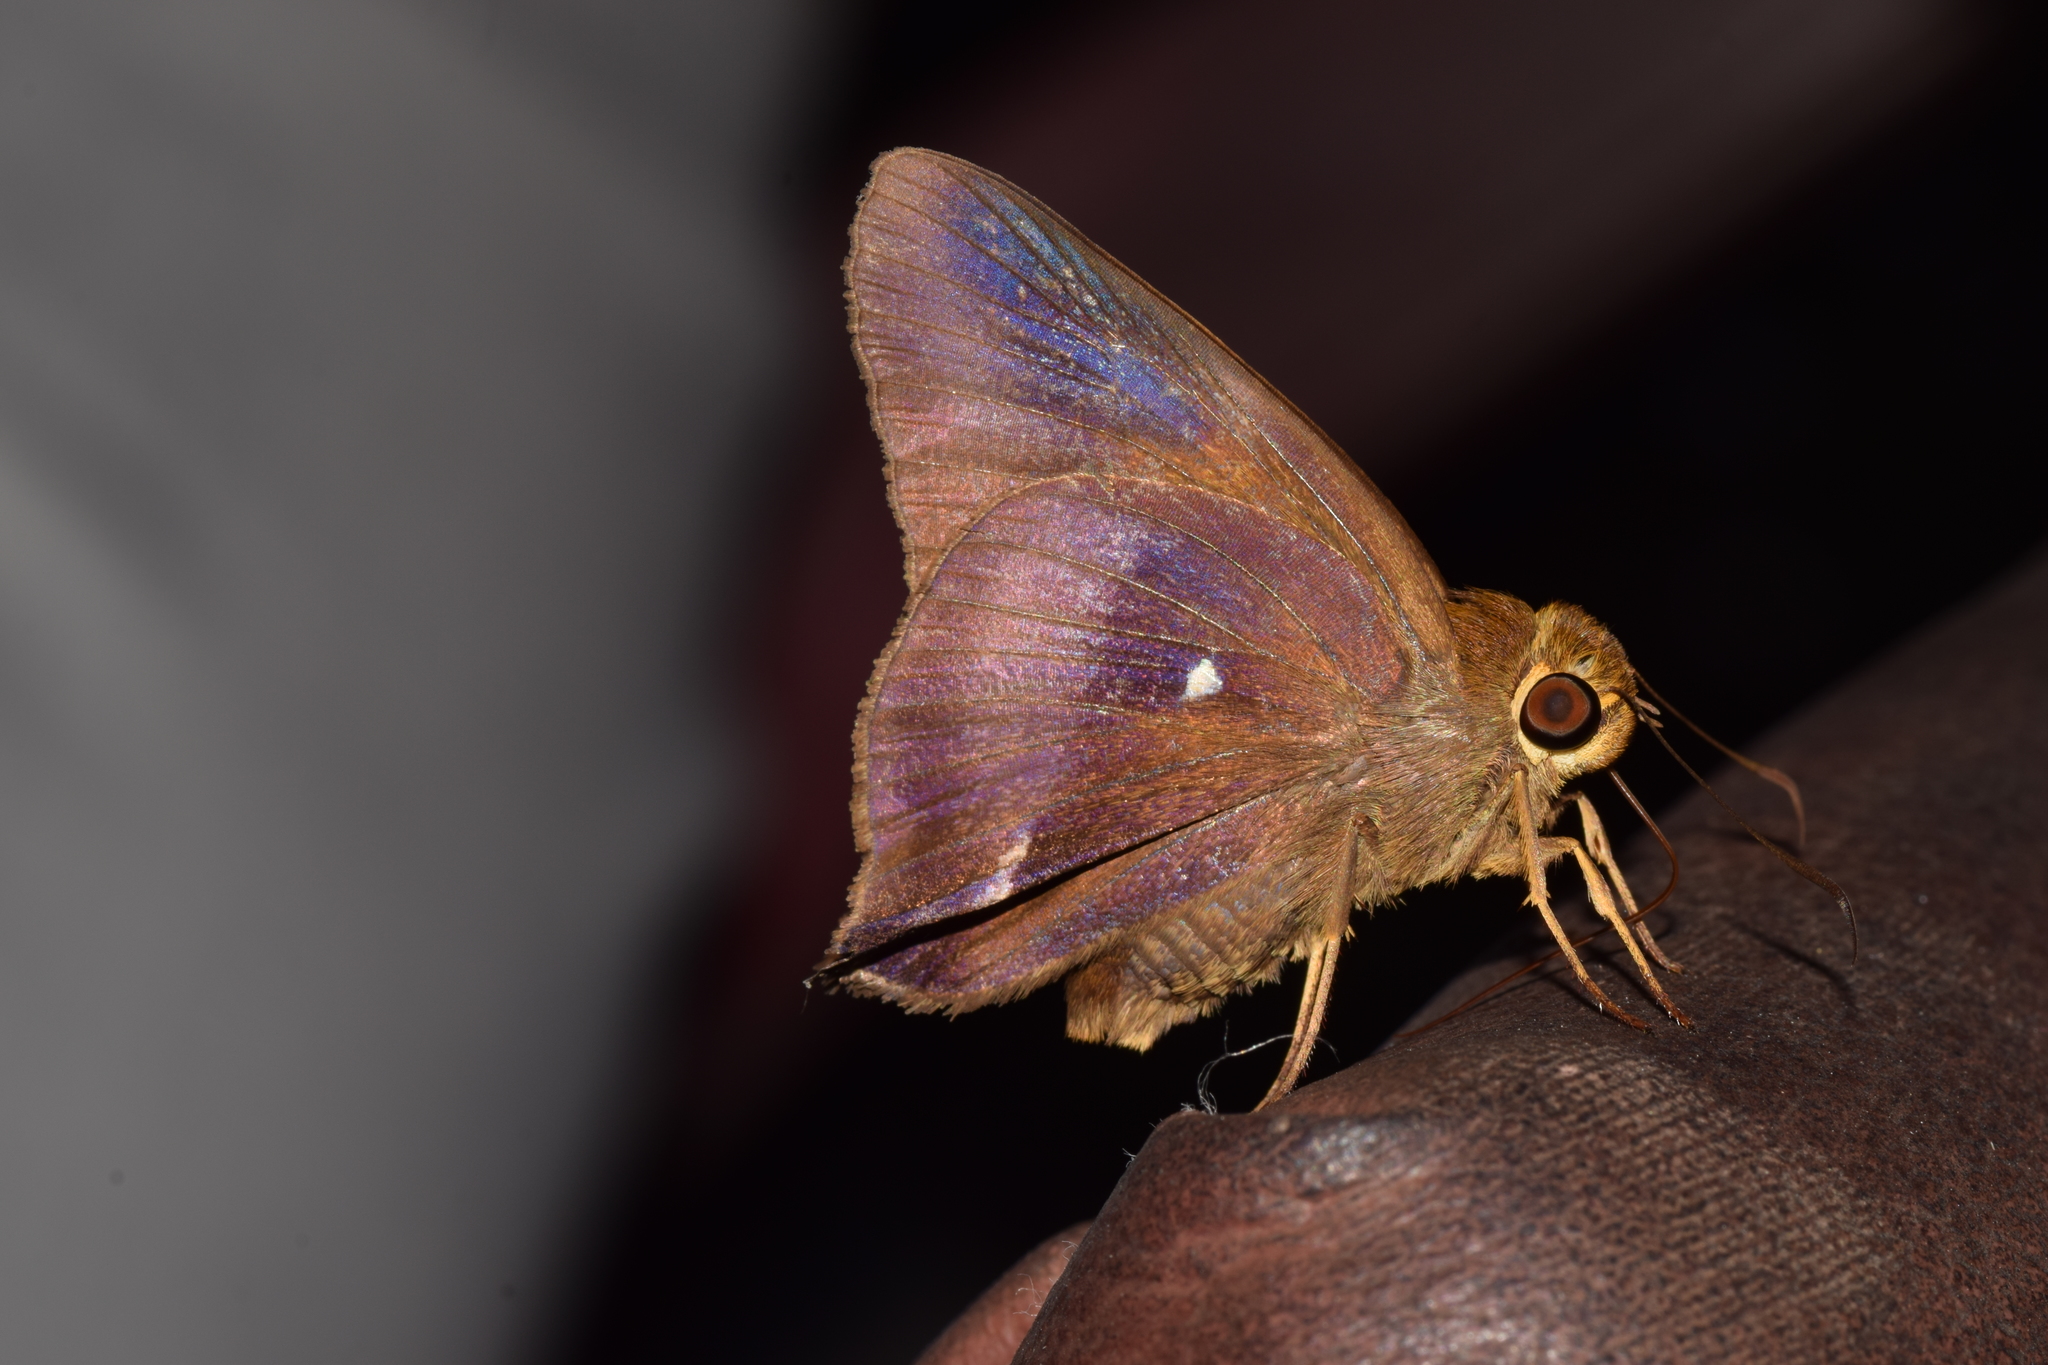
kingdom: Animalia
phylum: Arthropoda
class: Insecta
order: Lepidoptera
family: Hesperiidae
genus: Hasora
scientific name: Hasora badra
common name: Common awl
